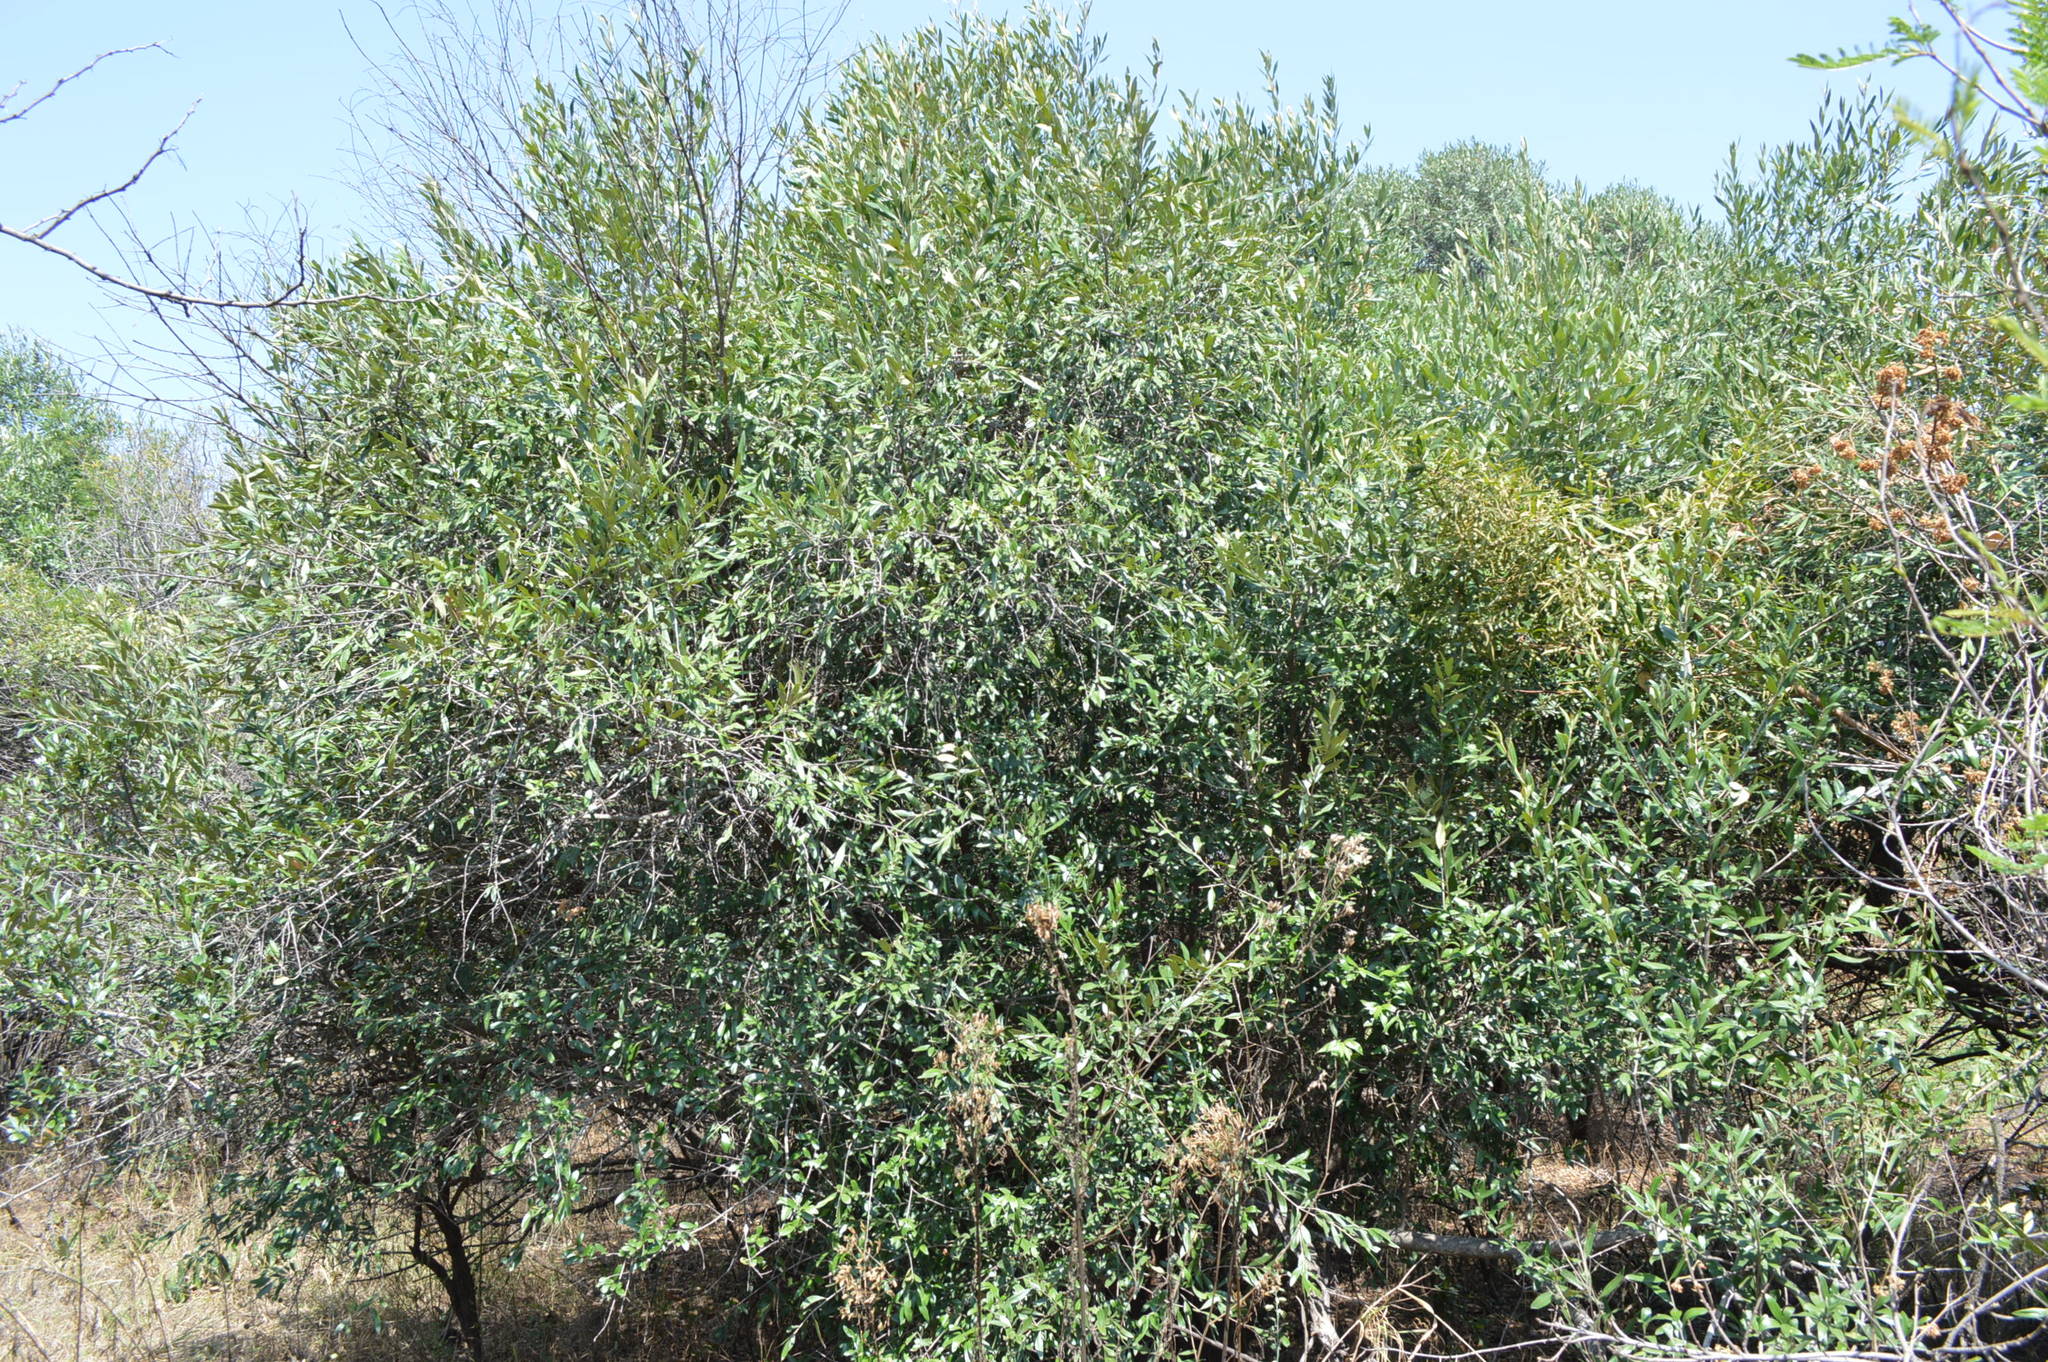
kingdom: Plantae
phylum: Tracheophyta
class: Magnoliopsida
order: Lamiales
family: Oleaceae
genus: Olea
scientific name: Olea europaea
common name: Olive
